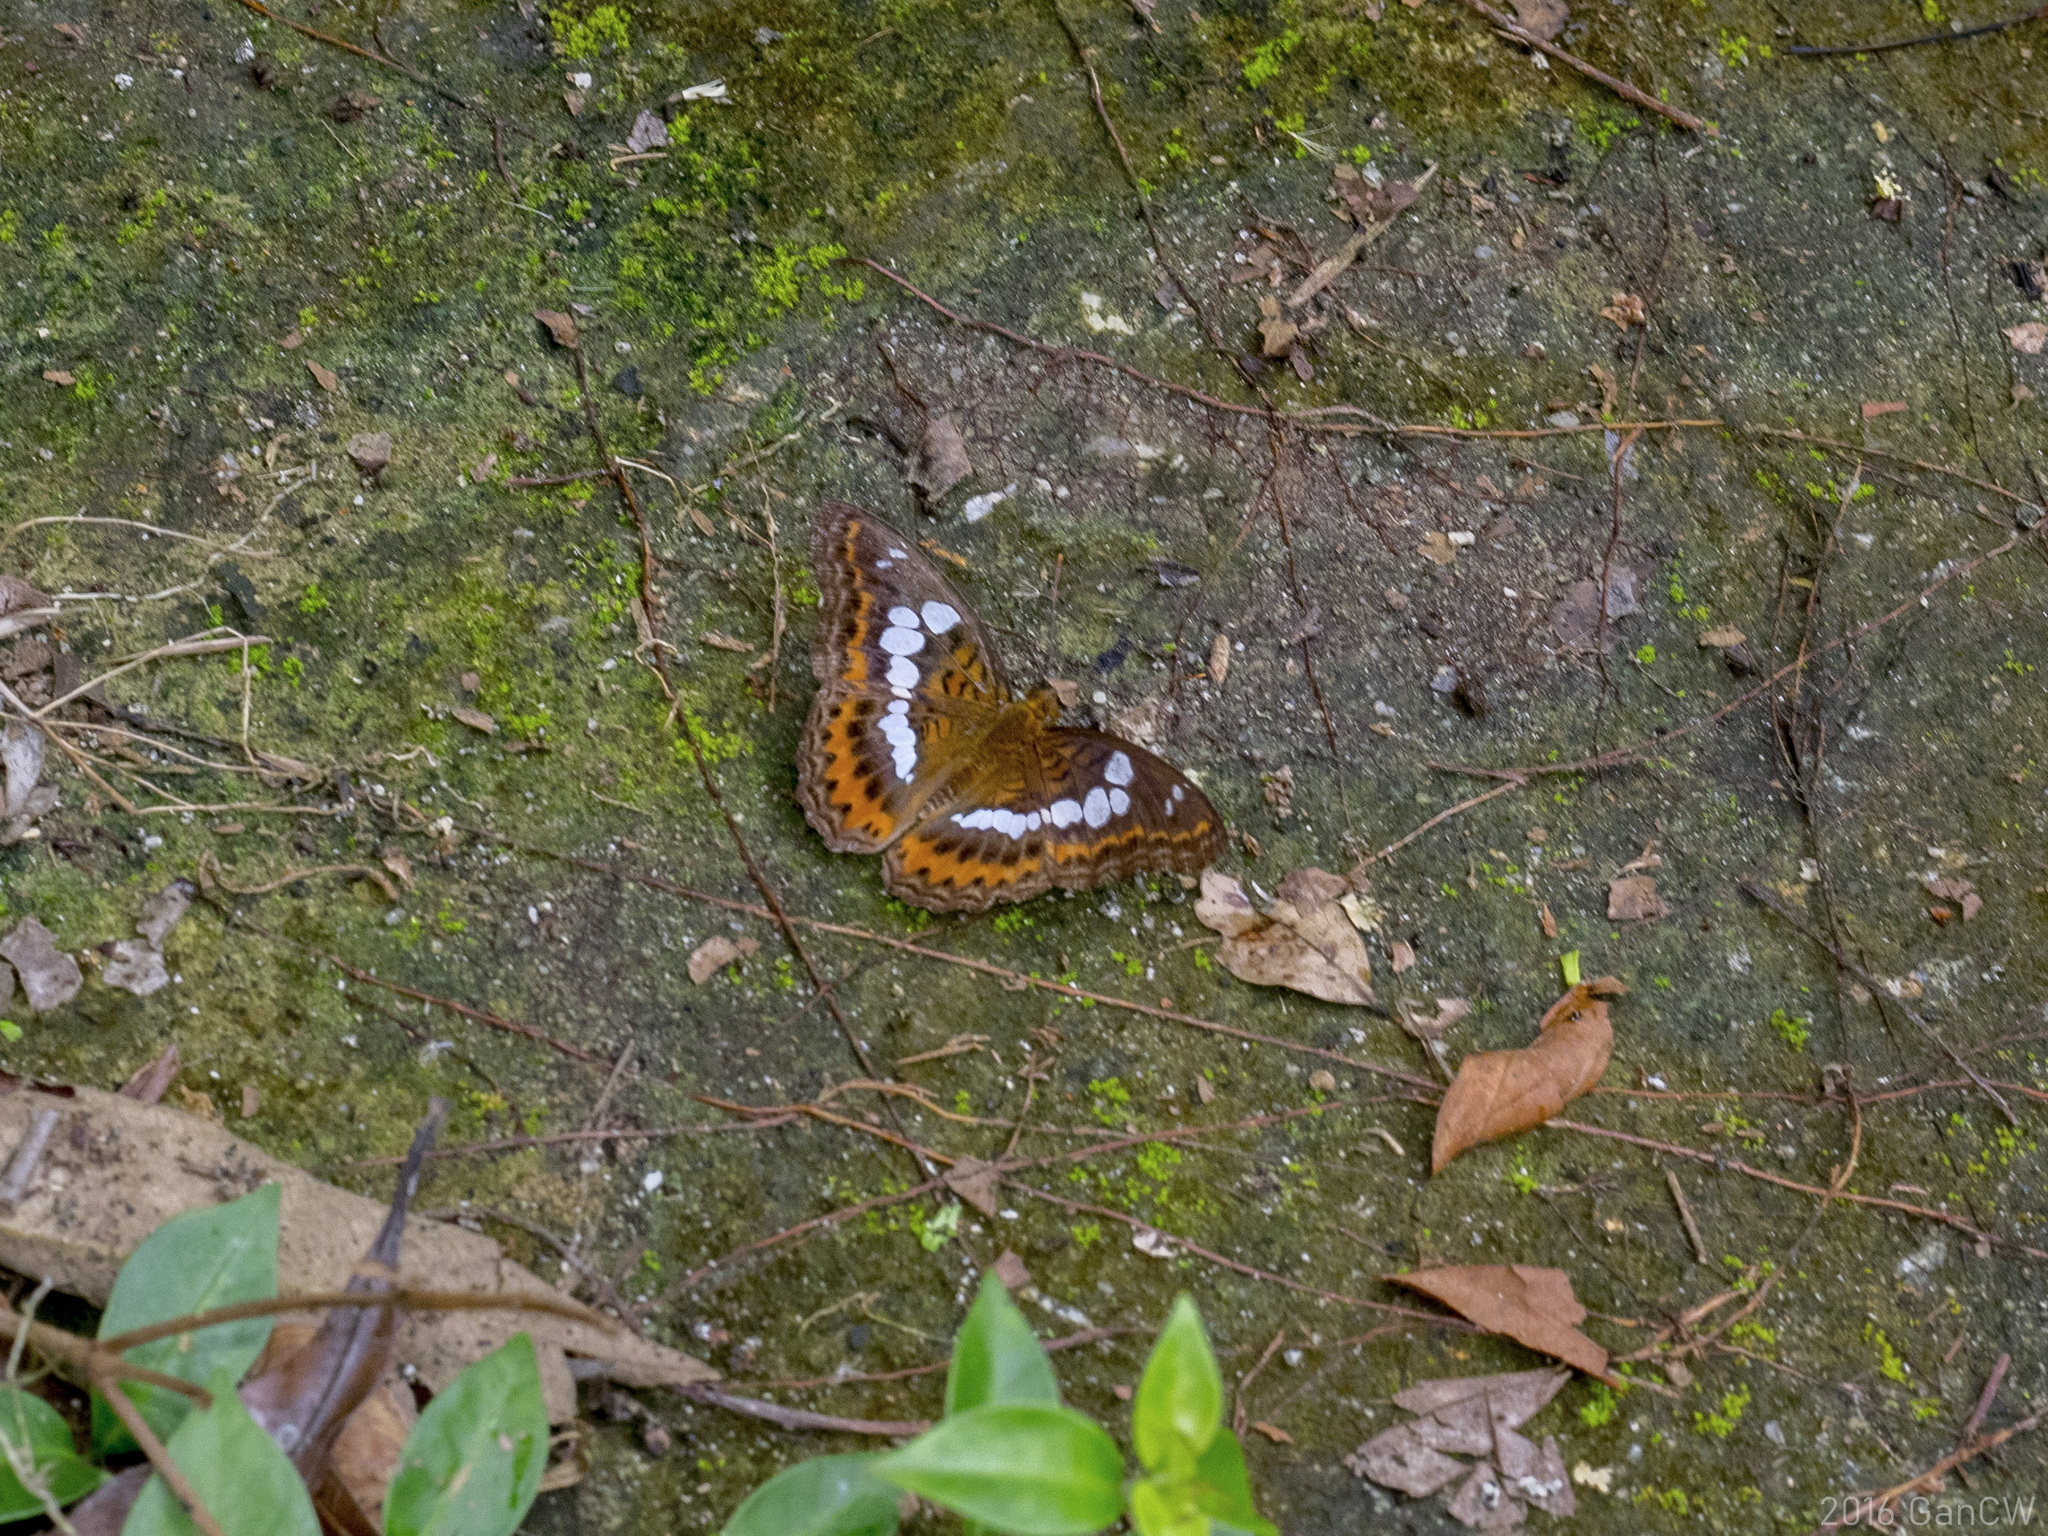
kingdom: Animalia
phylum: Arthropoda
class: Insecta
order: Lepidoptera
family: Nymphalidae
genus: Limenitis
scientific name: Limenitis Moduza procris
